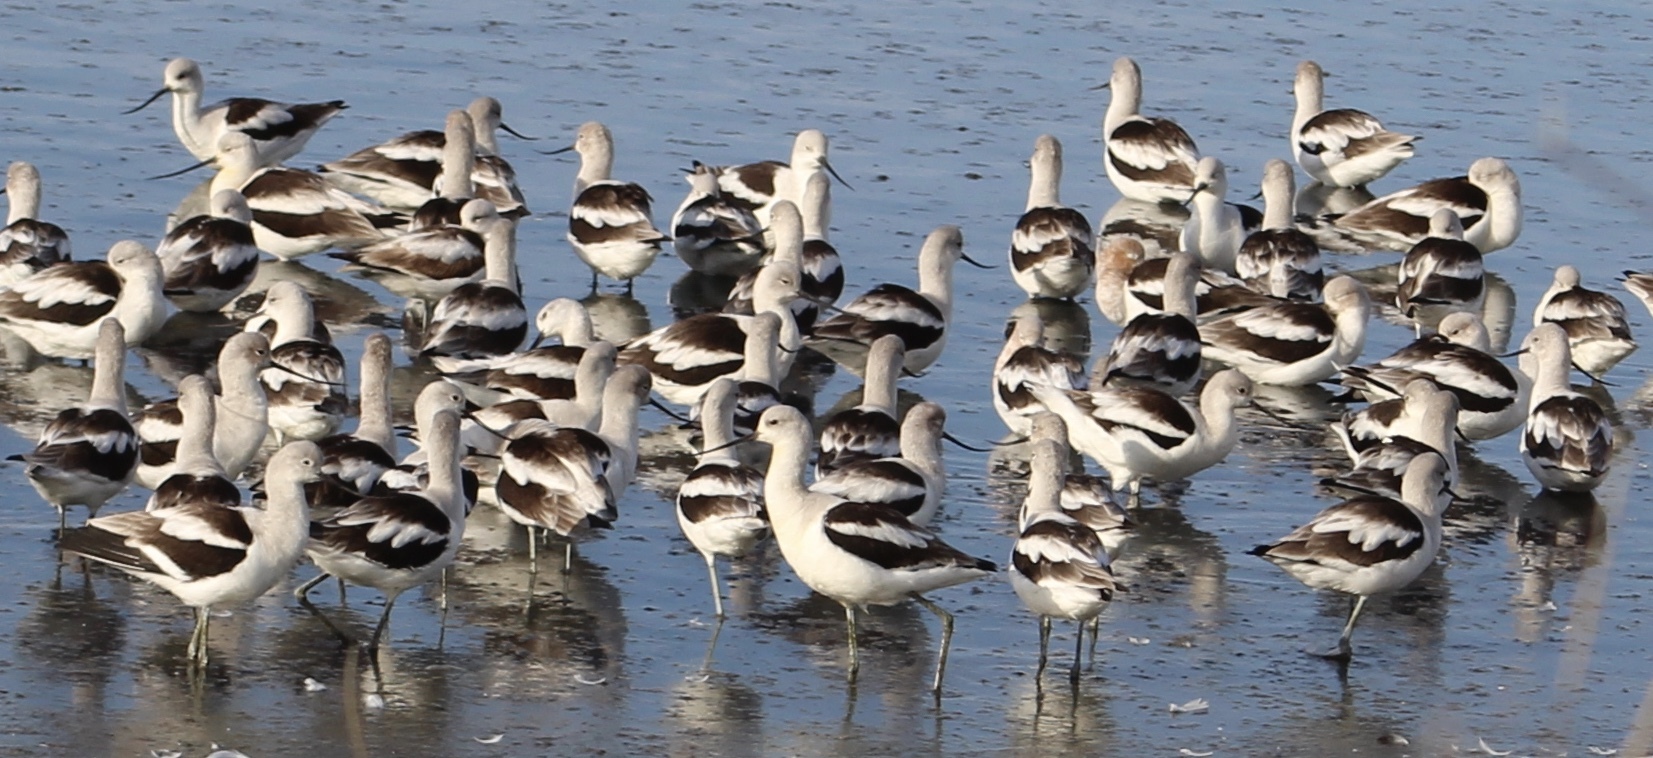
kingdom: Animalia
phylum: Chordata
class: Aves
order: Charadriiformes
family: Recurvirostridae
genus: Recurvirostra
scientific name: Recurvirostra americana
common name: American avocet
